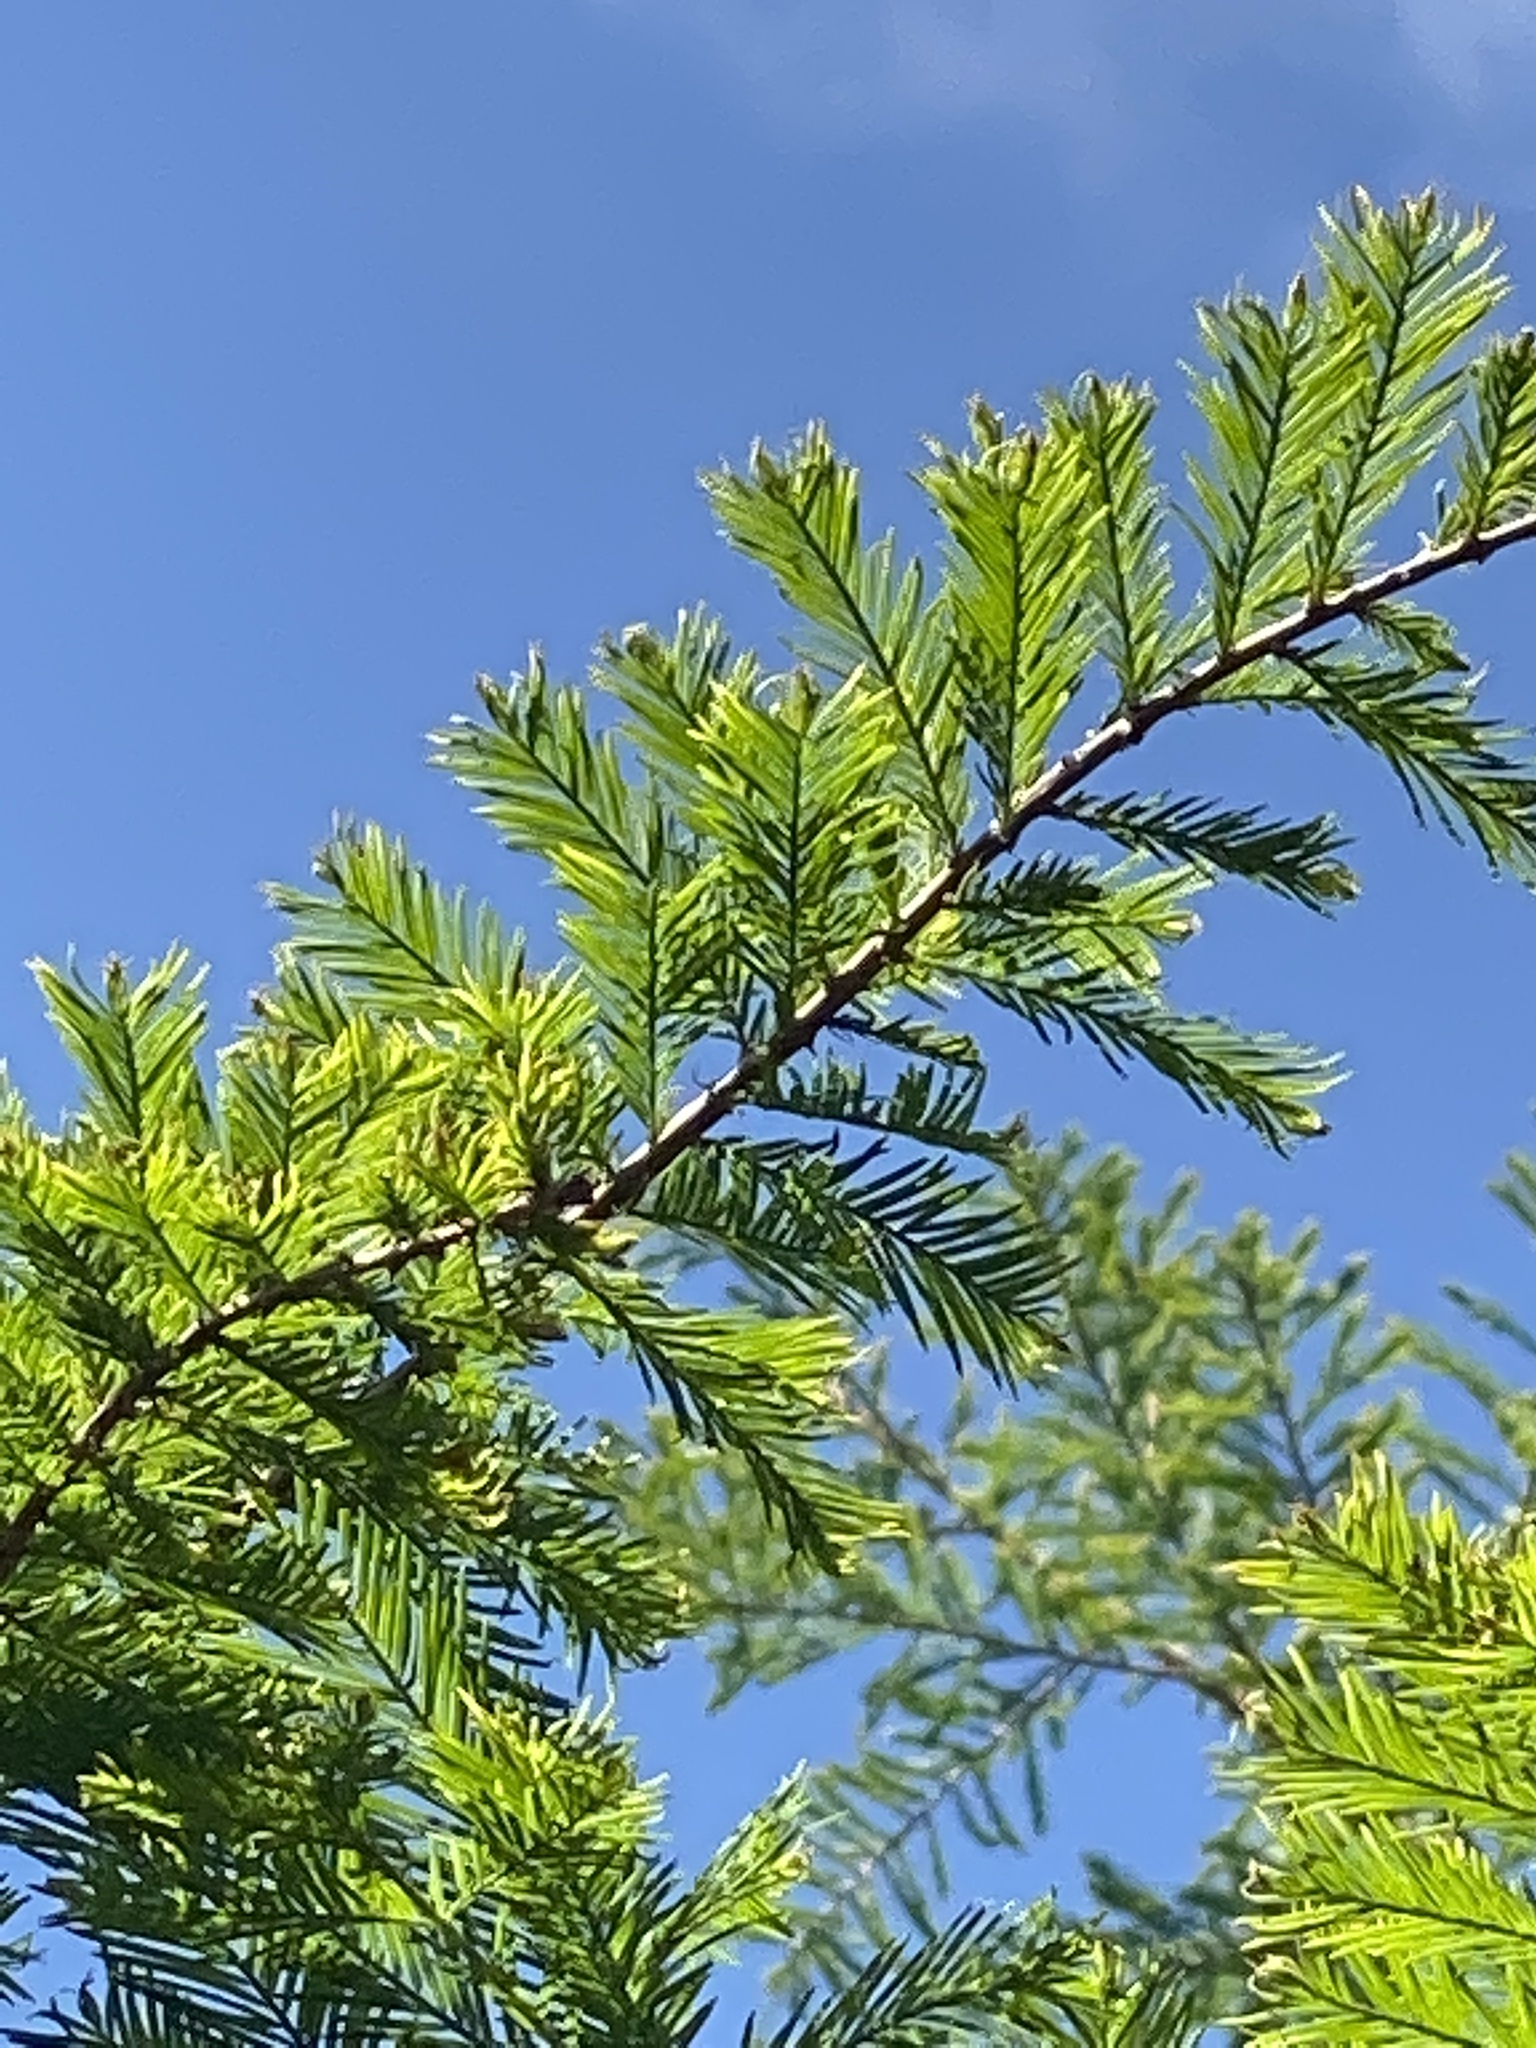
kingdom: Plantae
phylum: Tracheophyta
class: Pinopsida
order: Pinales
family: Cupressaceae
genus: Taxodium
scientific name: Taxodium distichum
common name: Bald cypress
